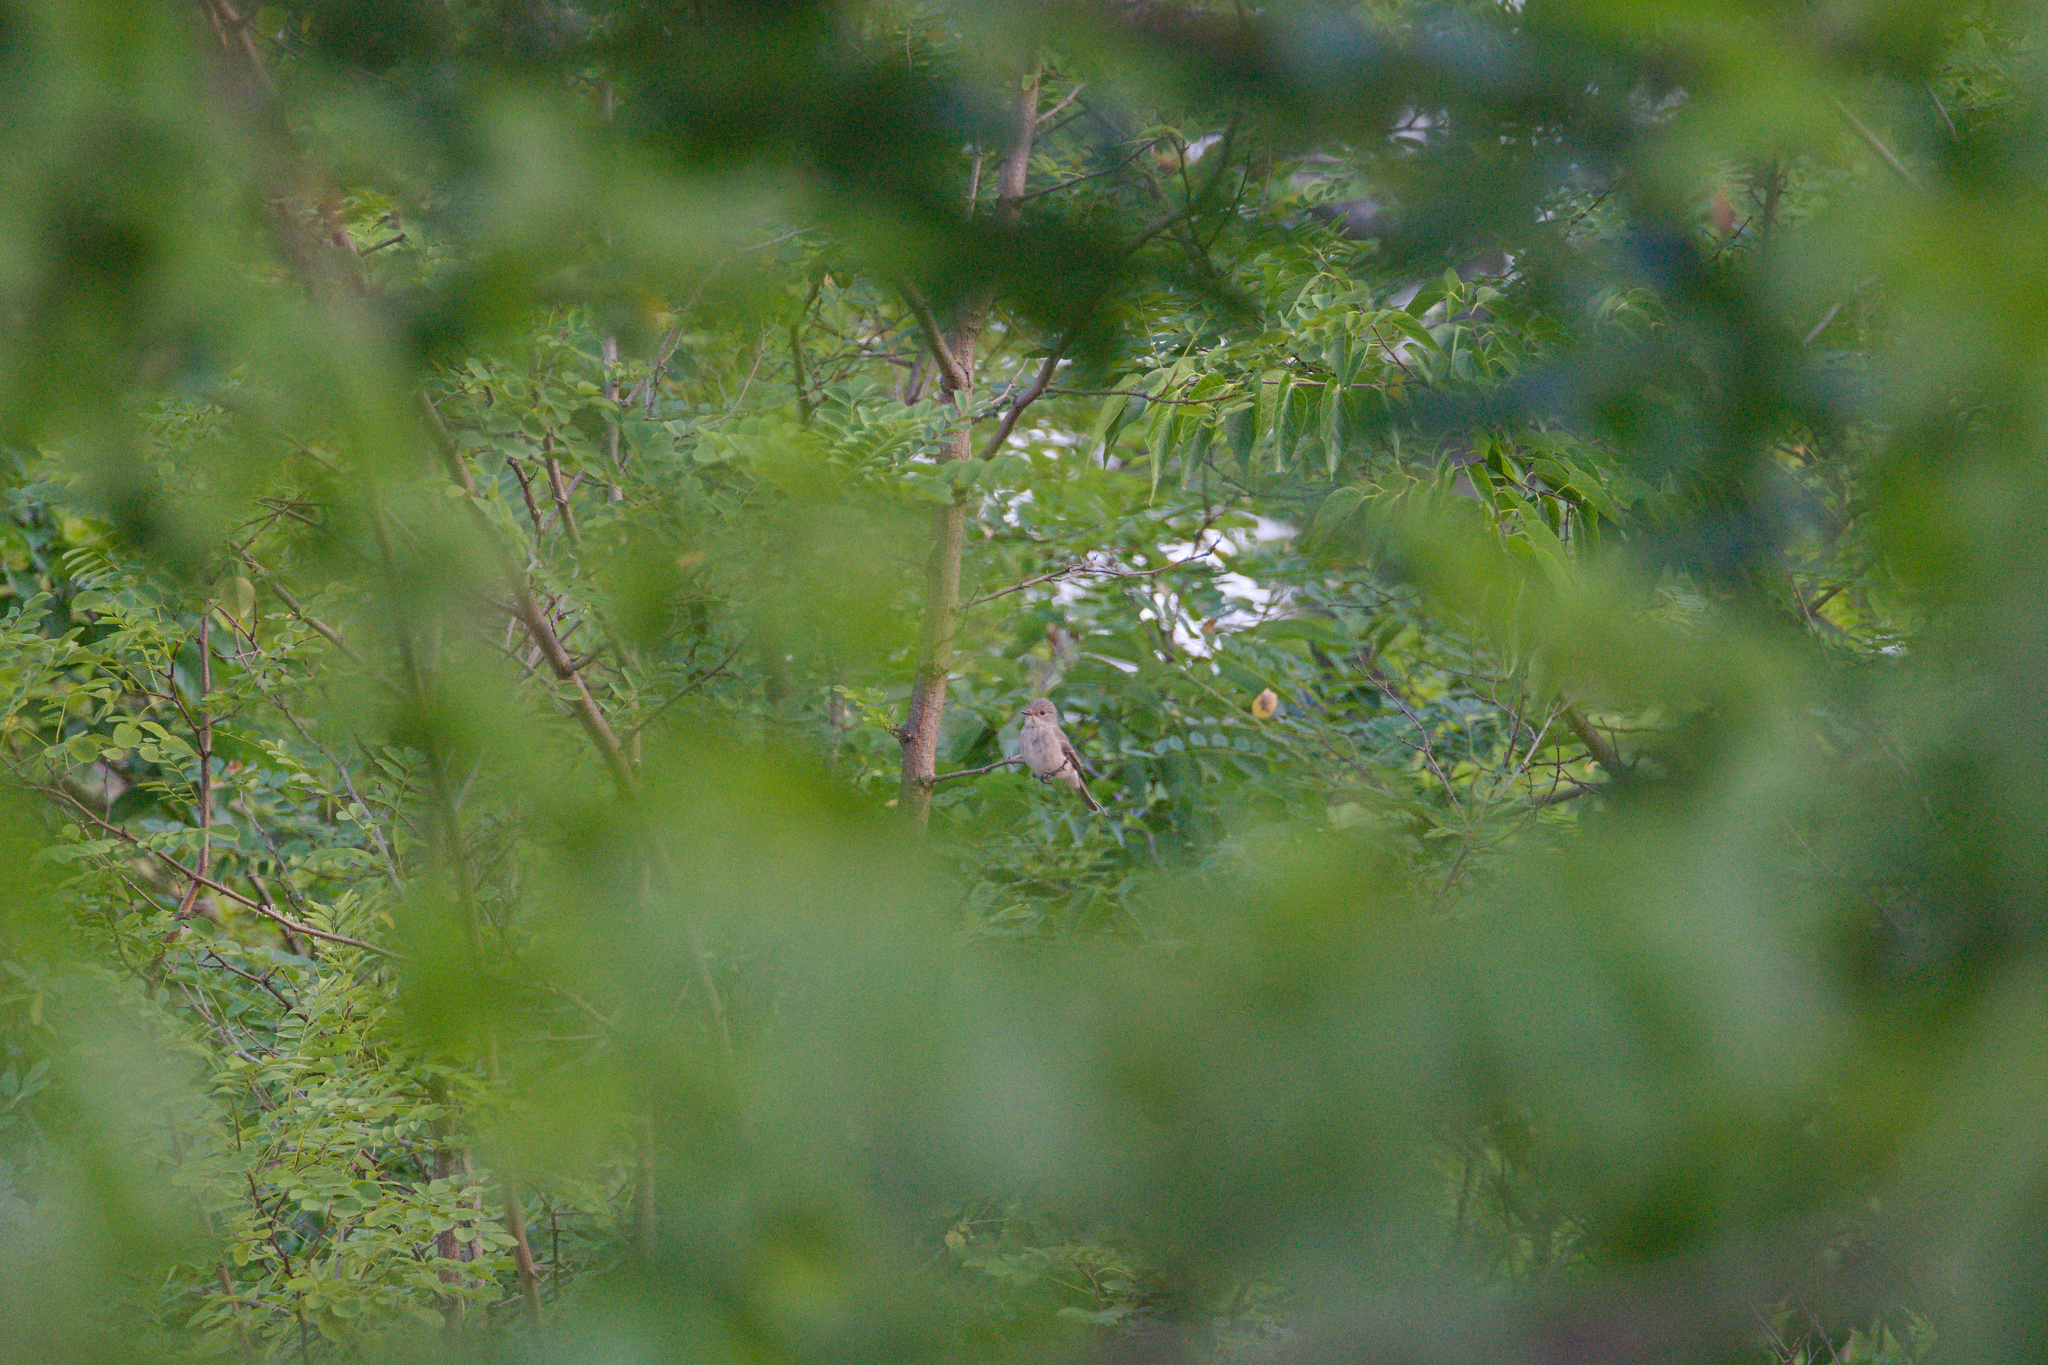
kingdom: Animalia
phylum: Chordata
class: Aves
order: Passeriformes
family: Muscicapidae
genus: Muscicapa
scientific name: Muscicapa striata
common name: Spotted flycatcher
